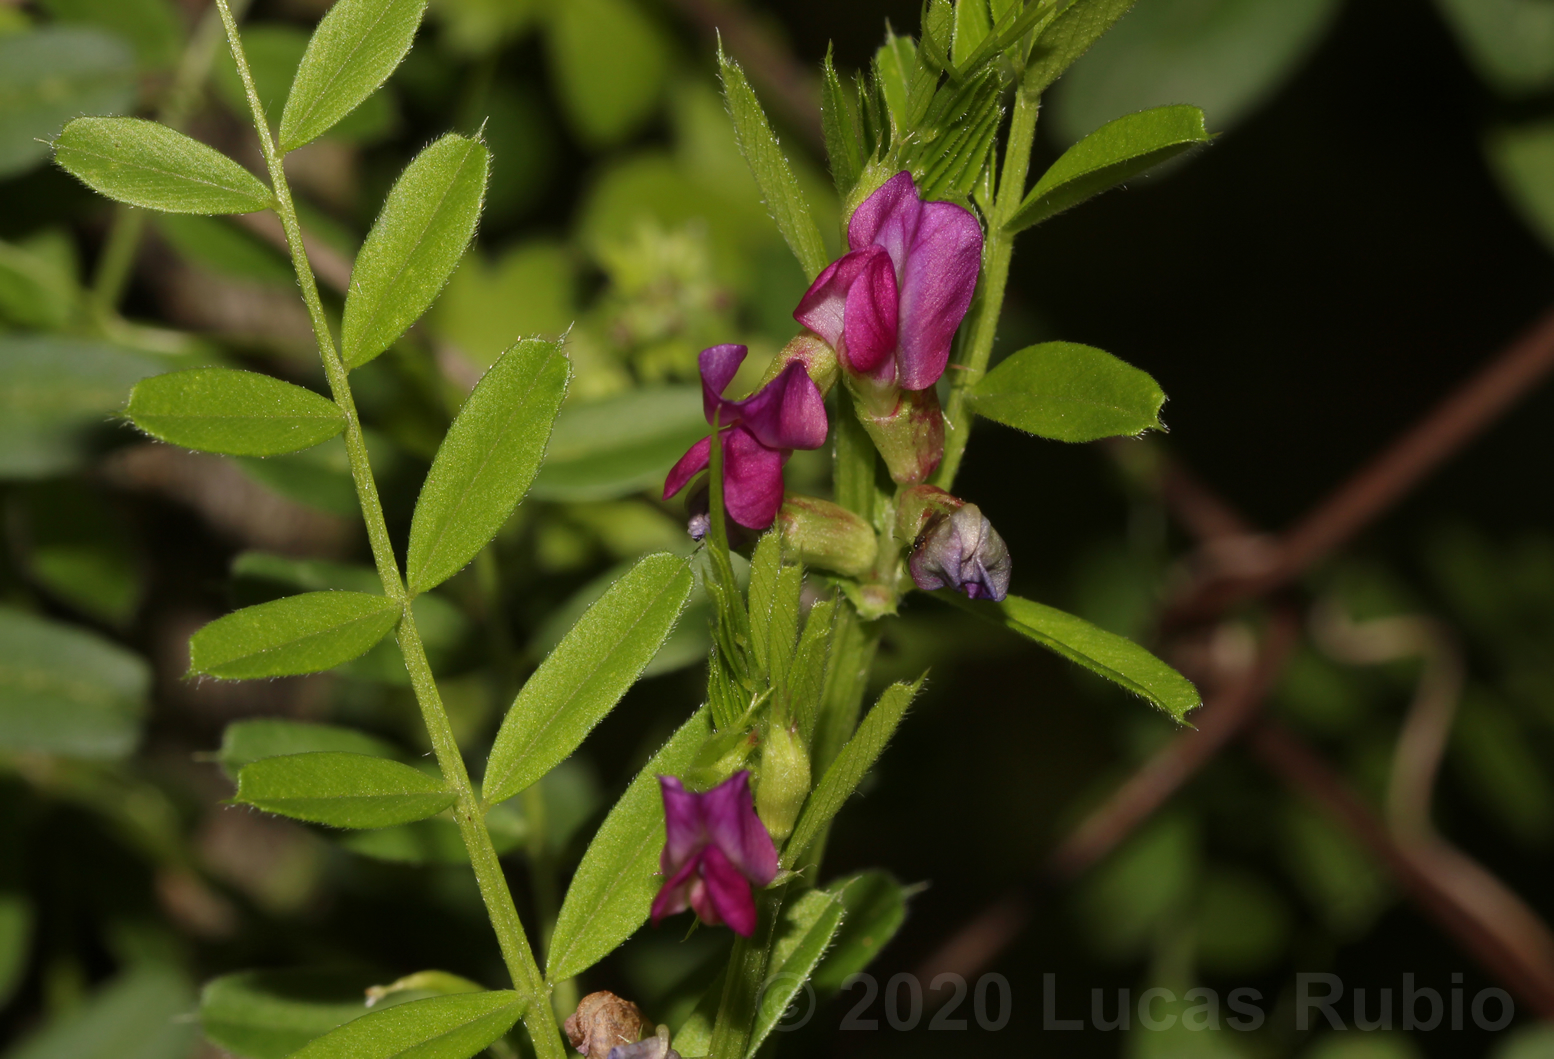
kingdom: Plantae
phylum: Tracheophyta
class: Magnoliopsida
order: Fabales
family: Fabaceae
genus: Vicia
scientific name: Vicia sativa
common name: Garden vetch
